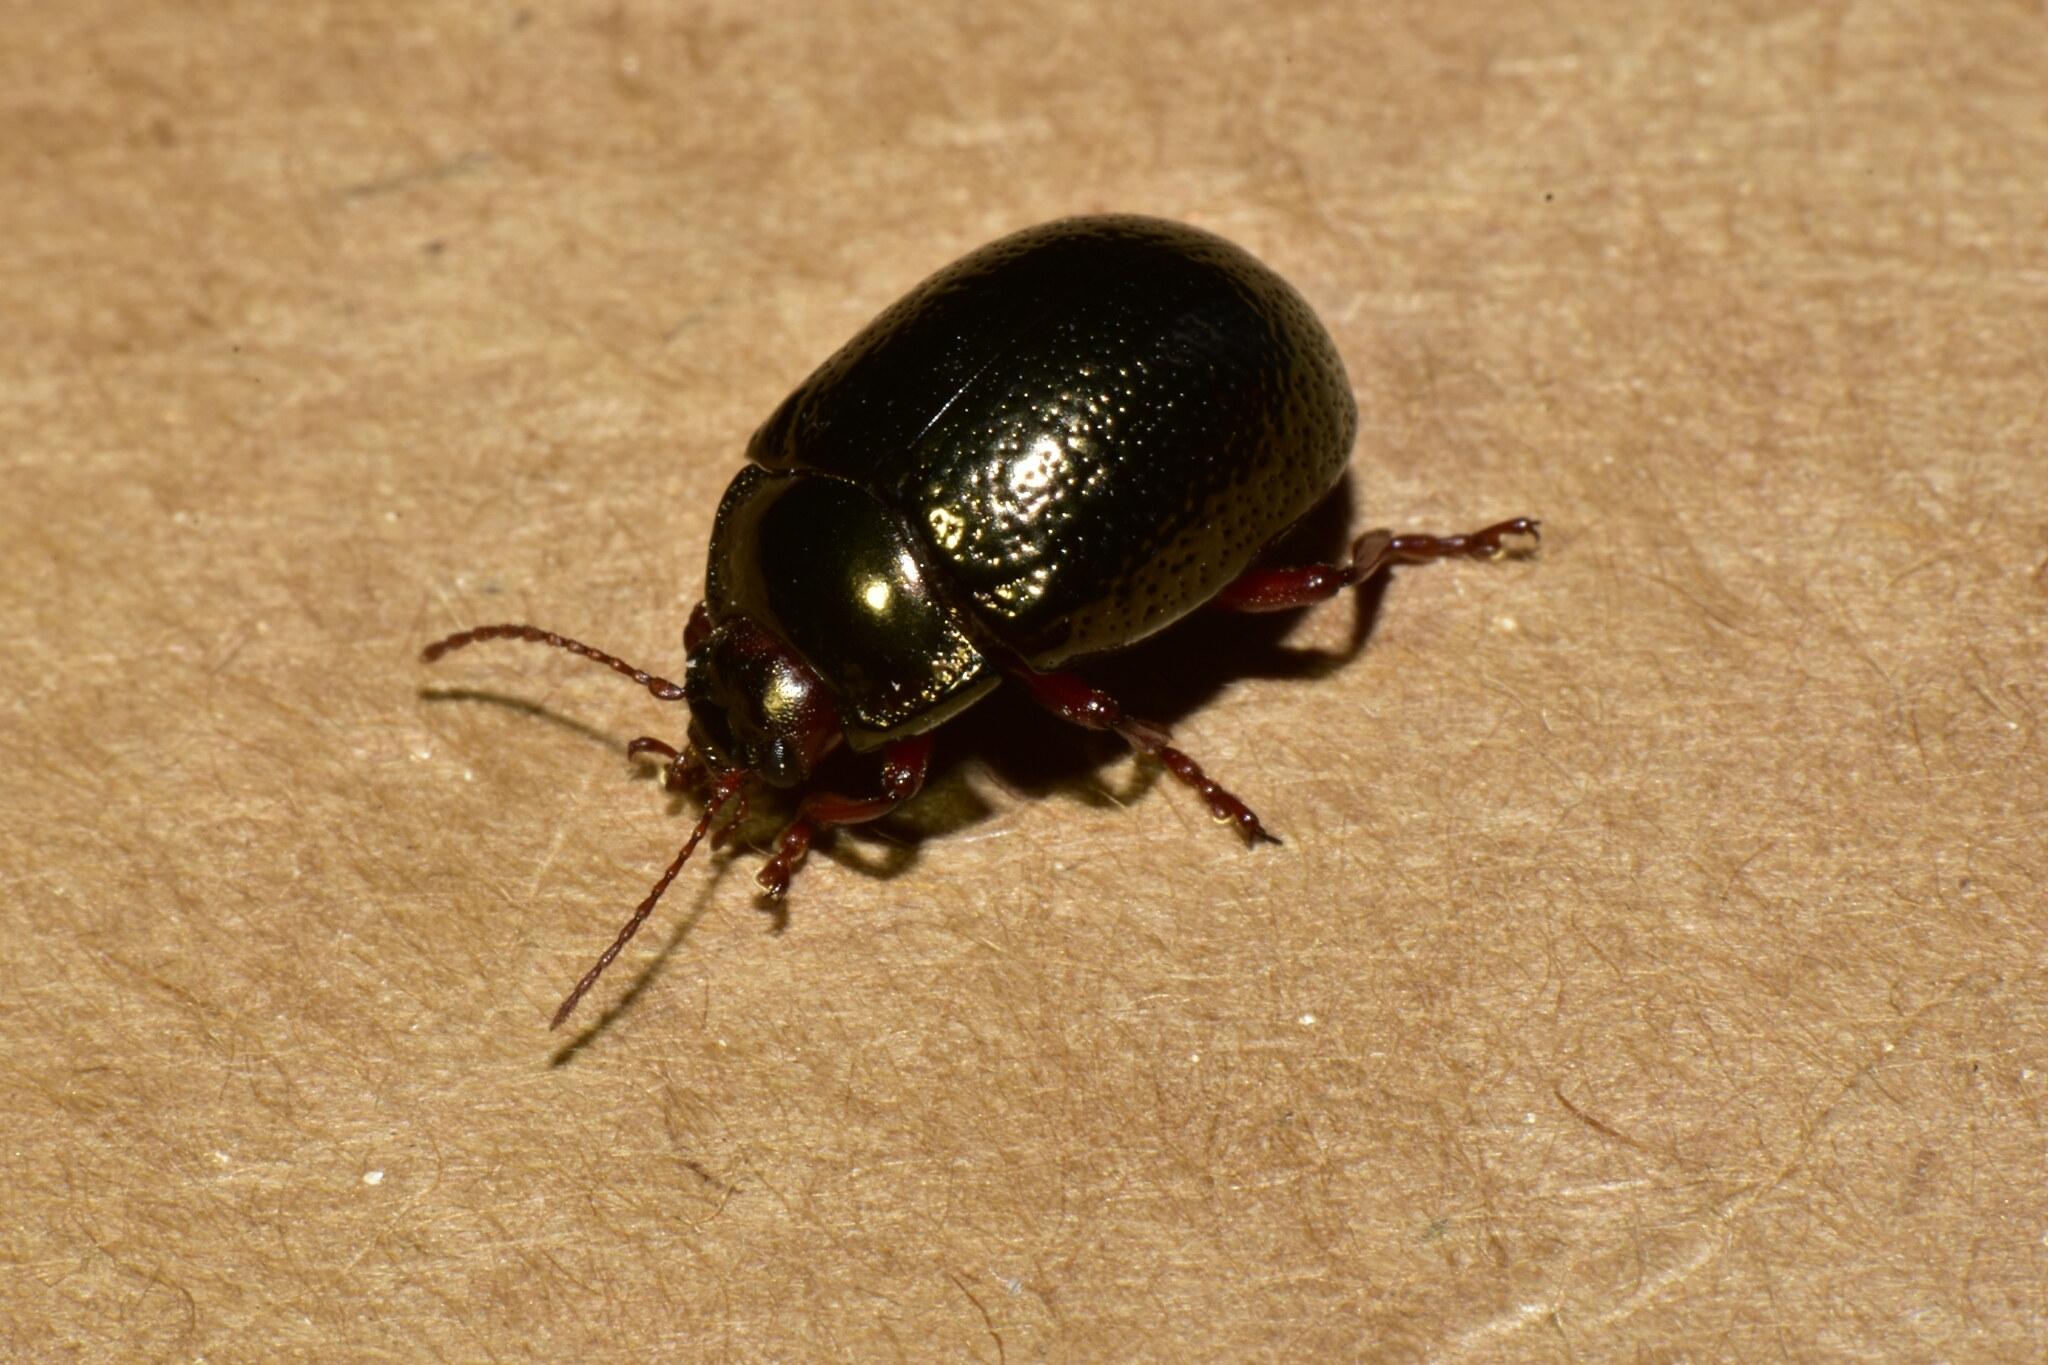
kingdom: Animalia
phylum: Arthropoda
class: Insecta
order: Coleoptera
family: Chrysomelidae
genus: Chrysolina
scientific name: Chrysolina bankii
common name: Leaf beetle
